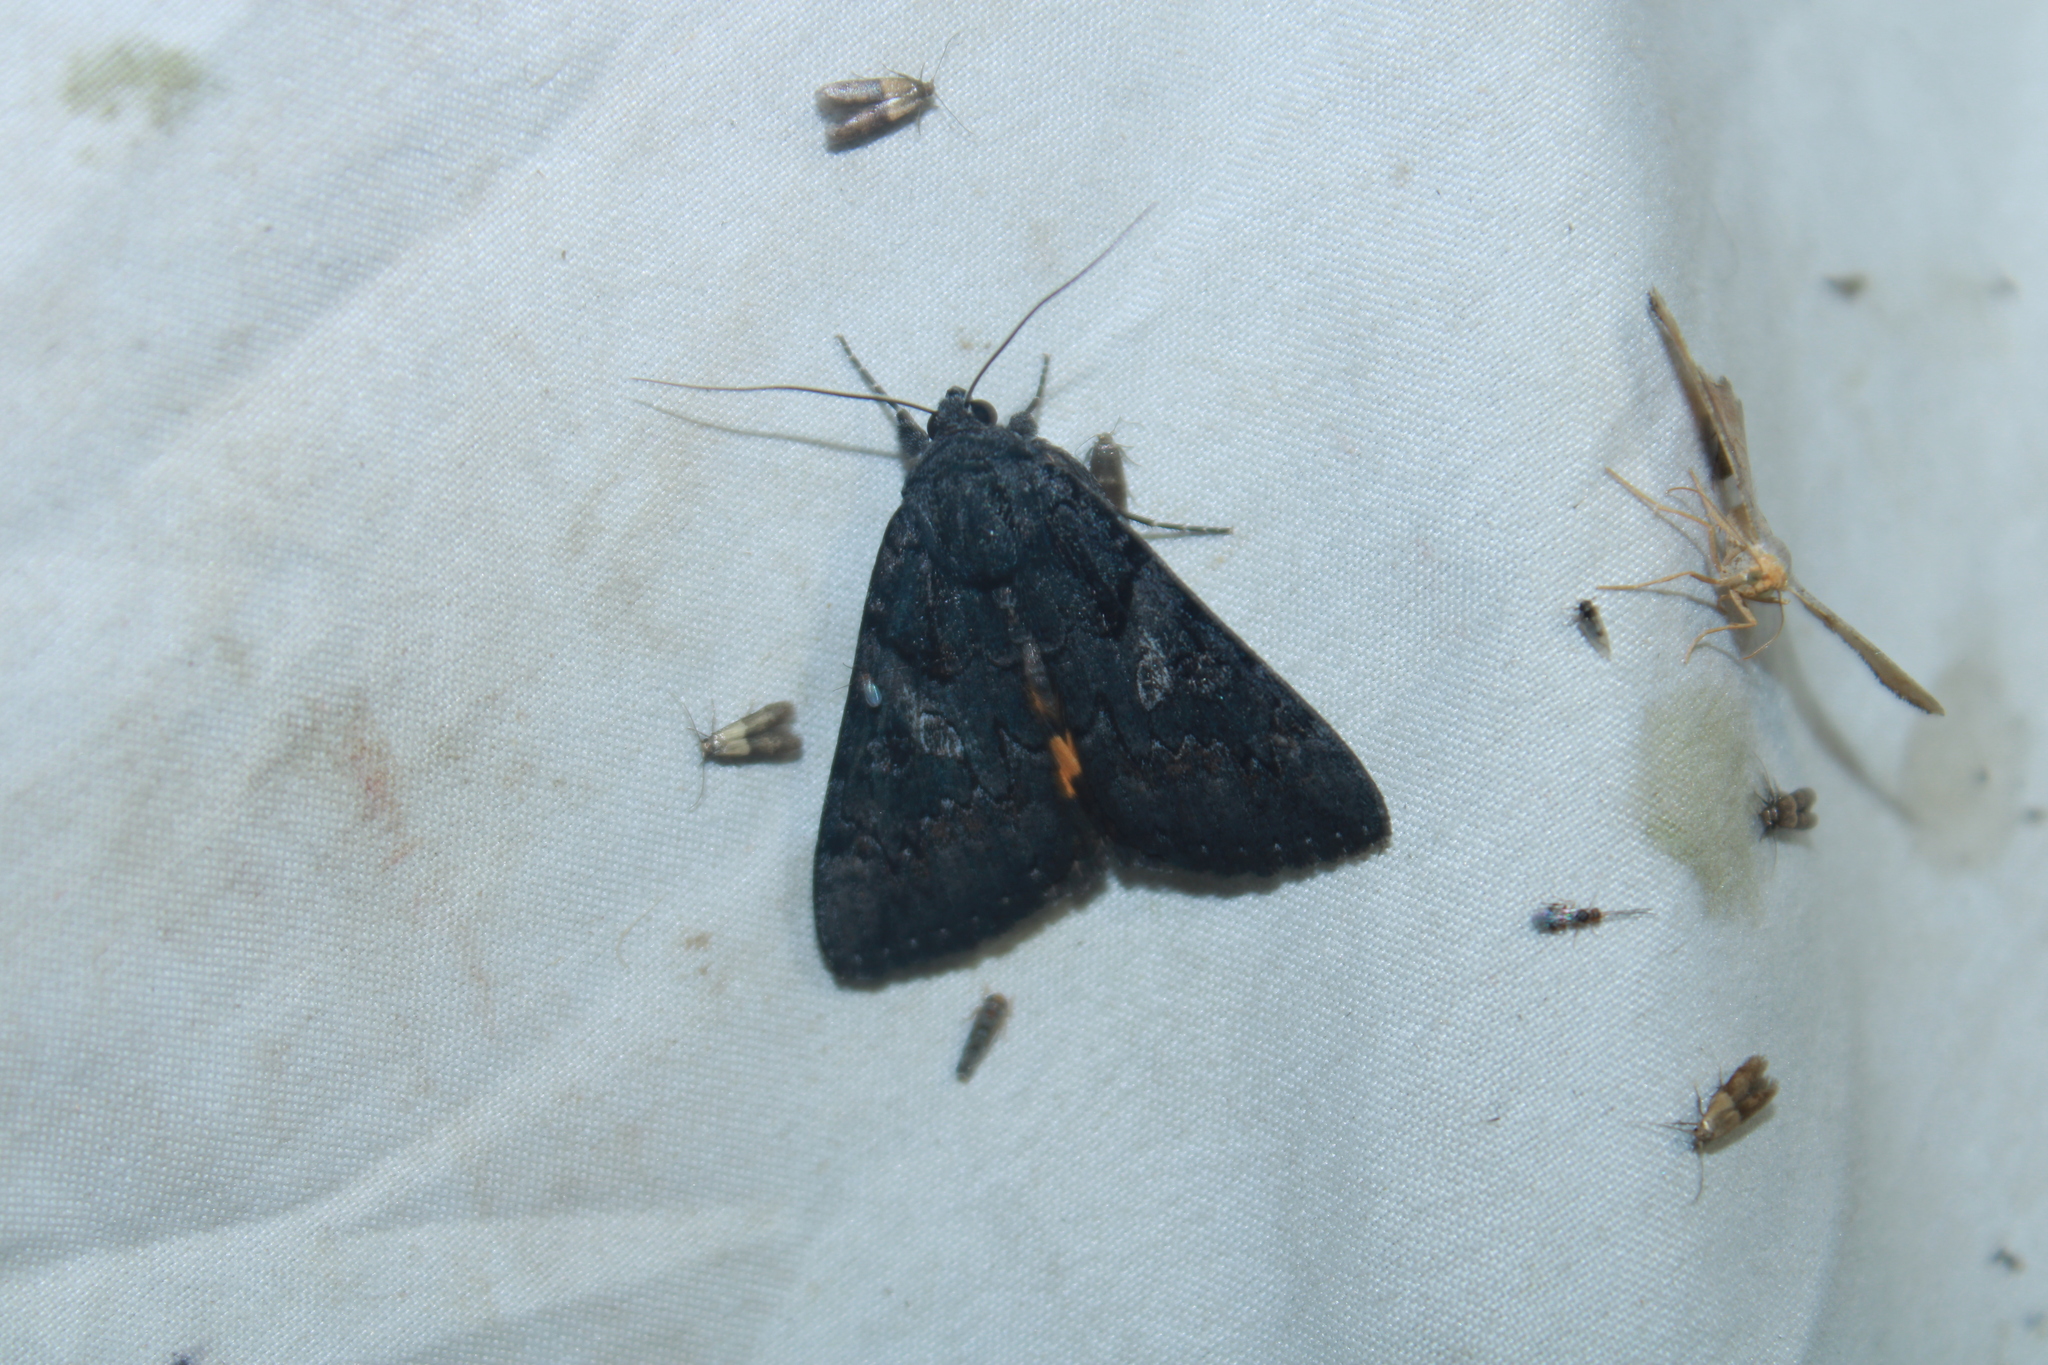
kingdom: Animalia
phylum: Arthropoda
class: Insecta
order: Lepidoptera
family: Erebidae
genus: Catocala
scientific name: Catocala antinympha
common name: Sweetfern underwing
